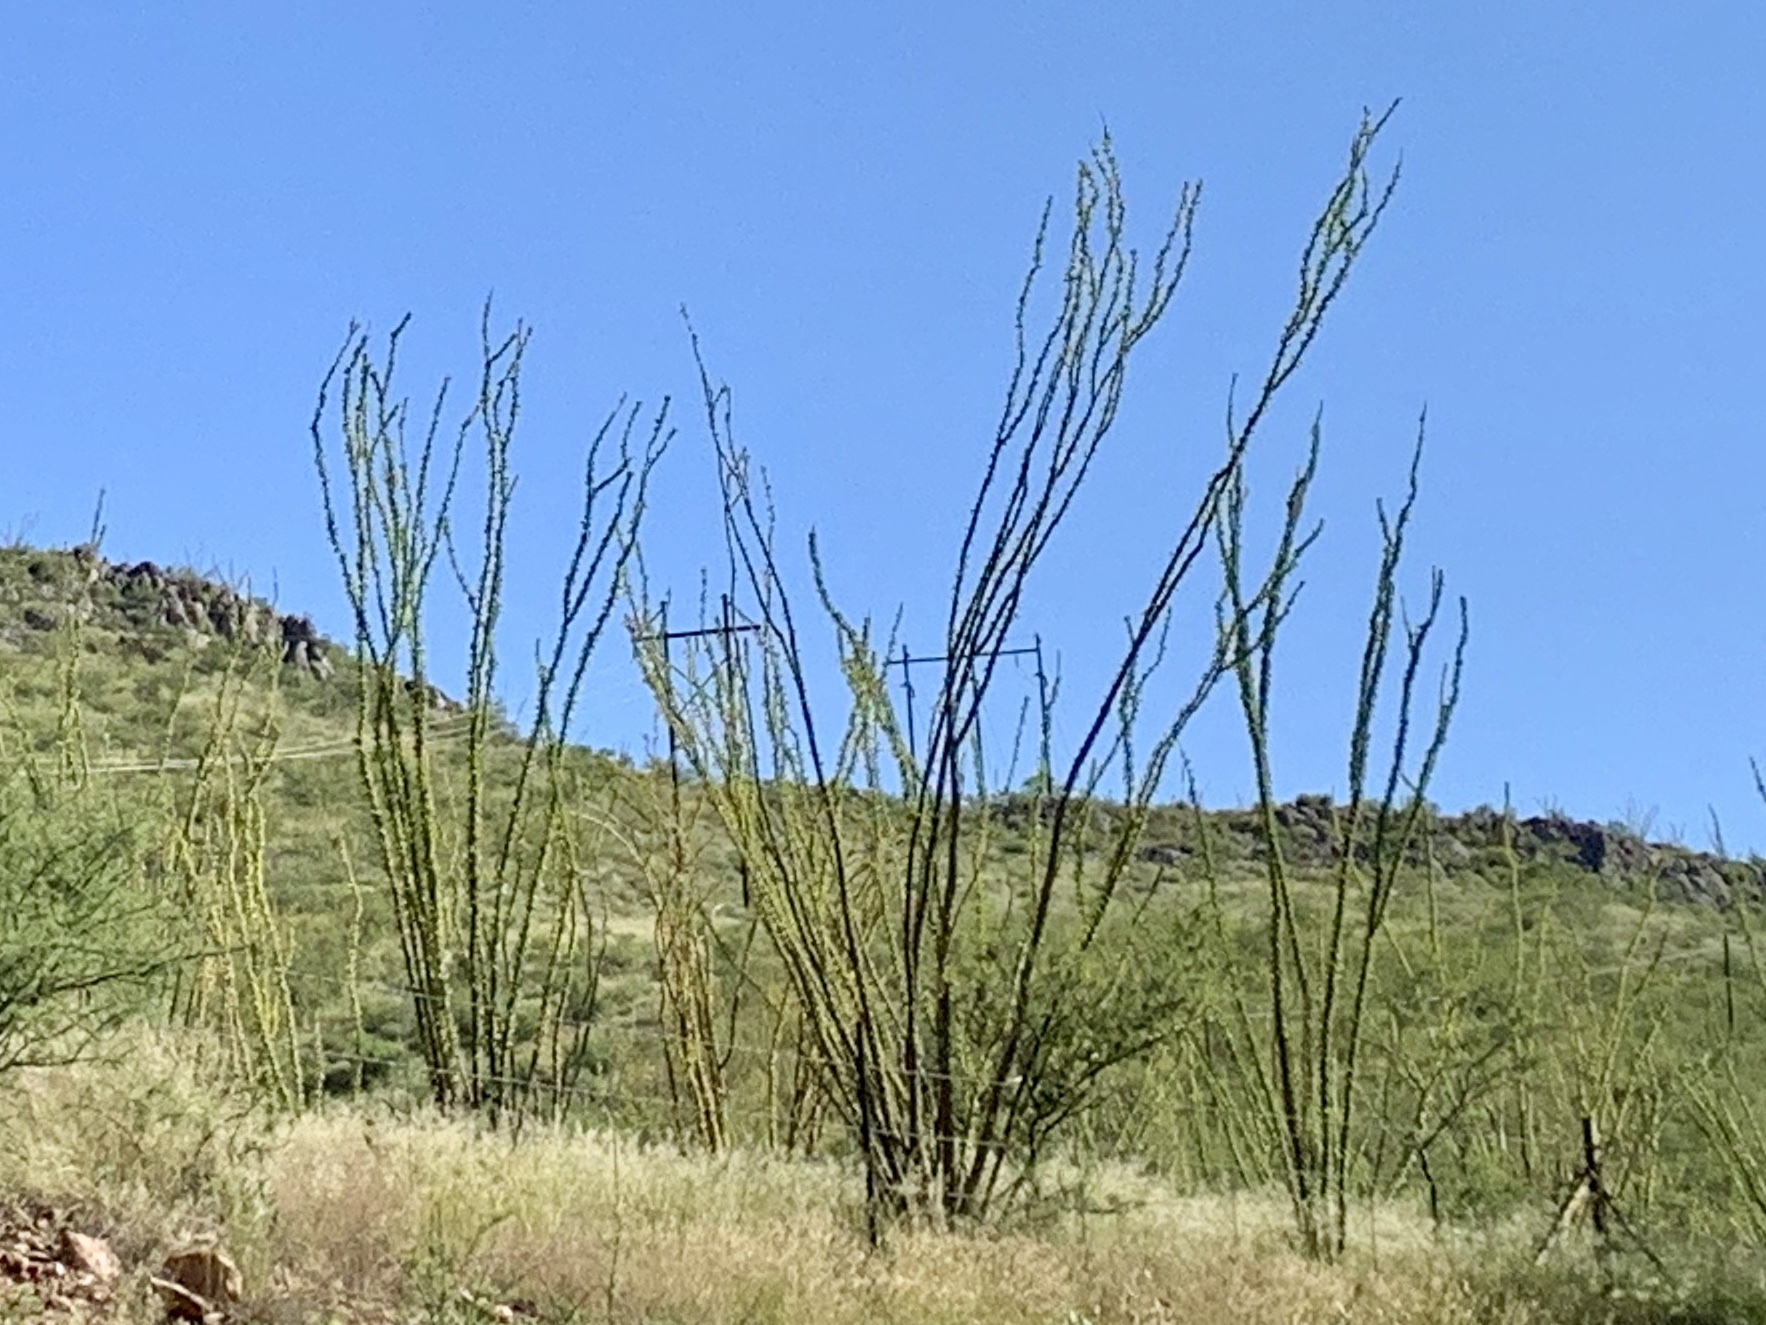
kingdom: Plantae
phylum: Tracheophyta
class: Magnoliopsida
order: Ericales
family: Fouquieriaceae
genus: Fouquieria
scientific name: Fouquieria splendens
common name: Vine-cactus
